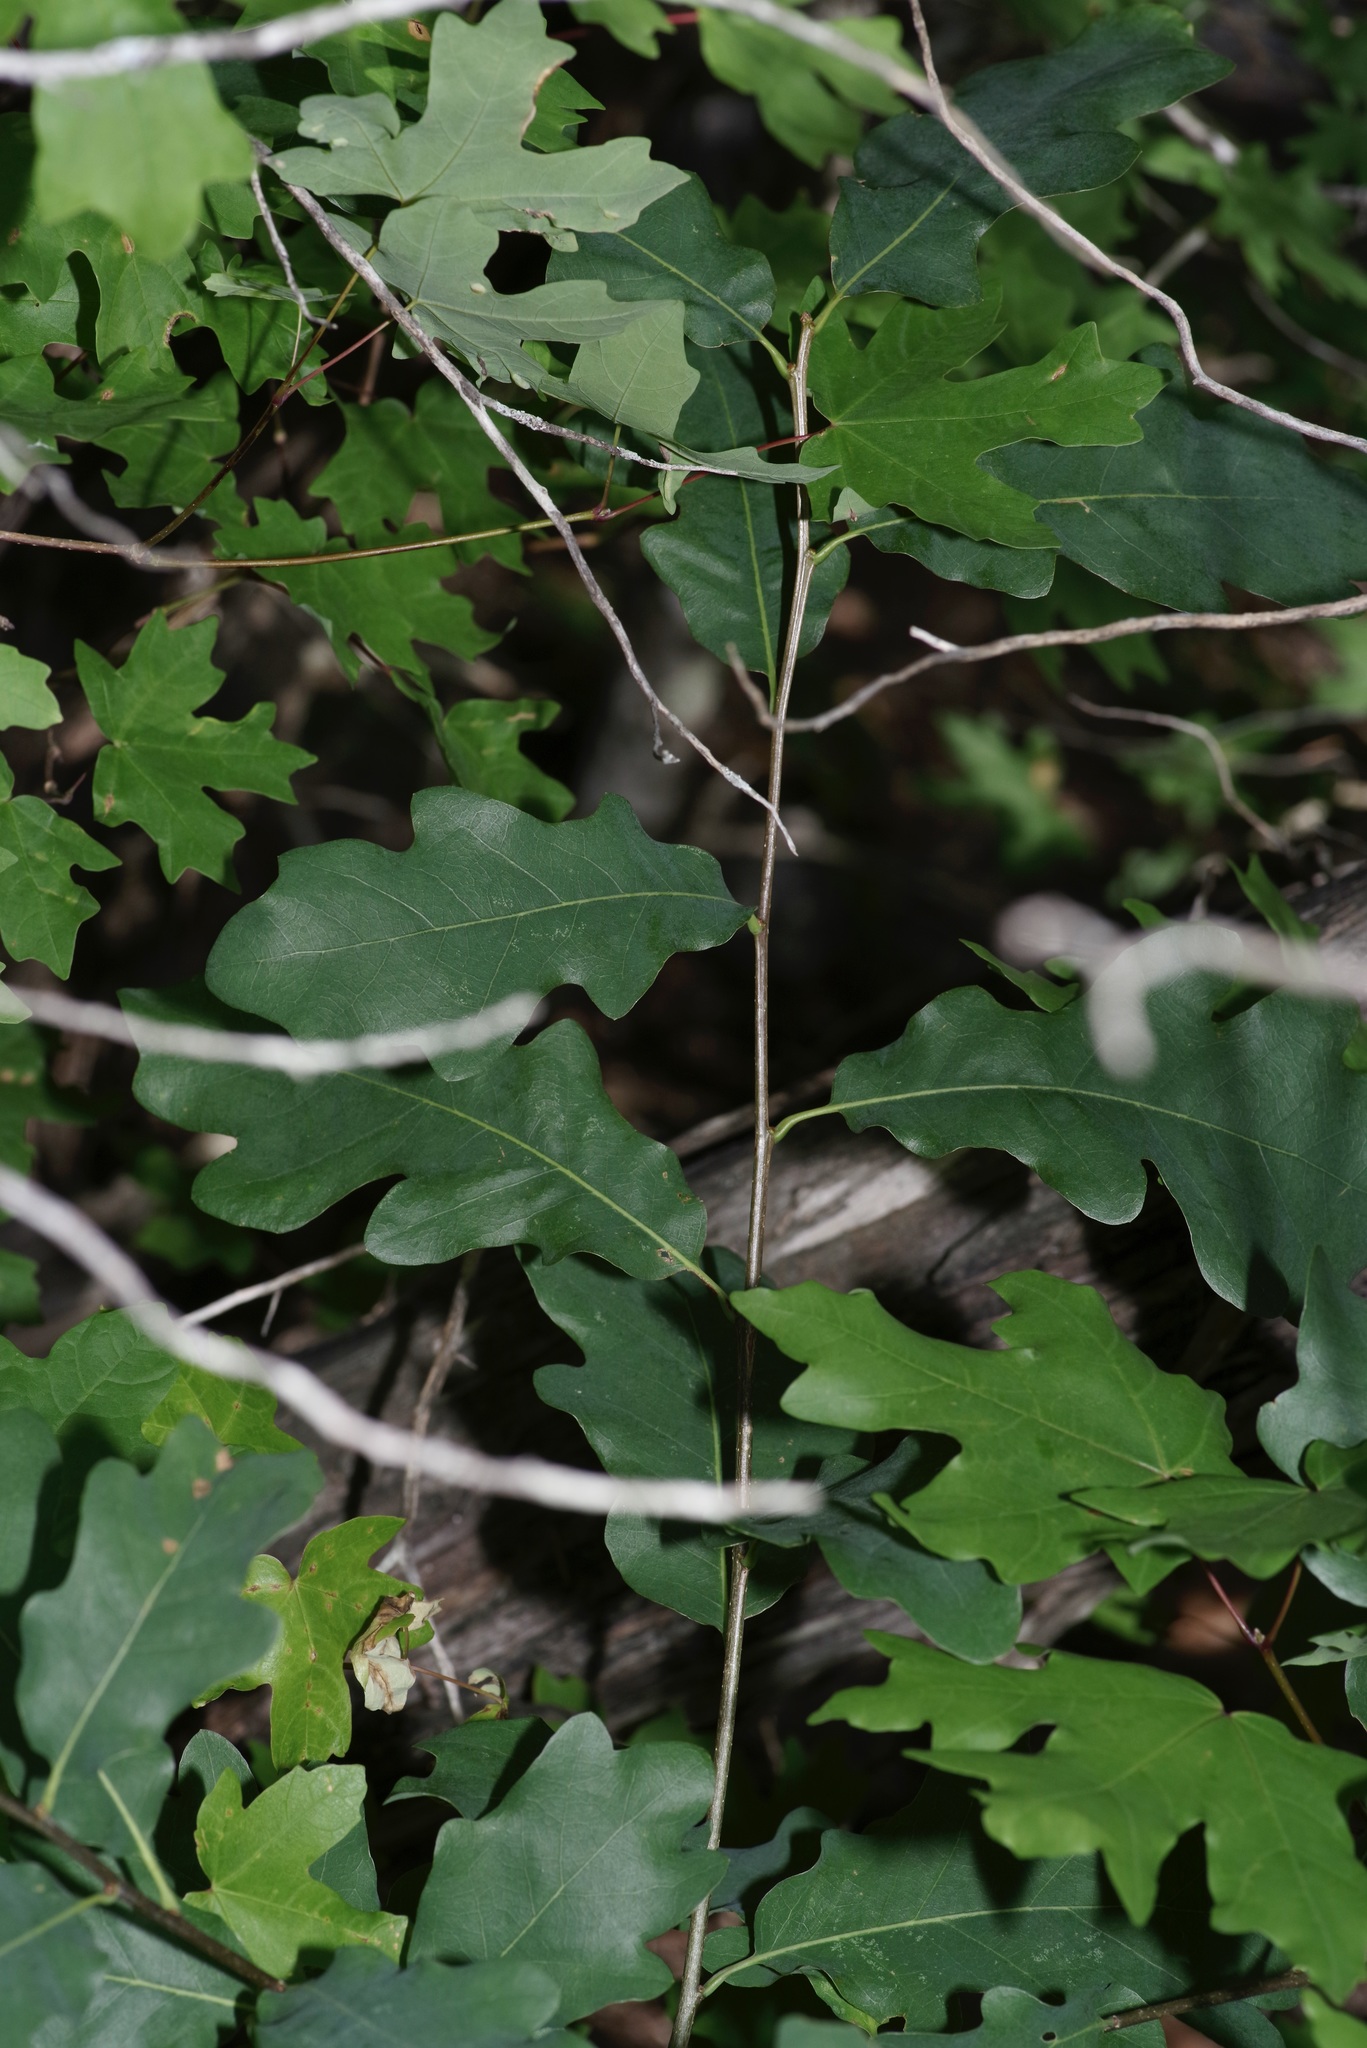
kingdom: Plantae
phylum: Tracheophyta
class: Magnoliopsida
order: Fagales
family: Fagaceae
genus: Quercus
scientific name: Quercus laceyi
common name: Lacey oak
